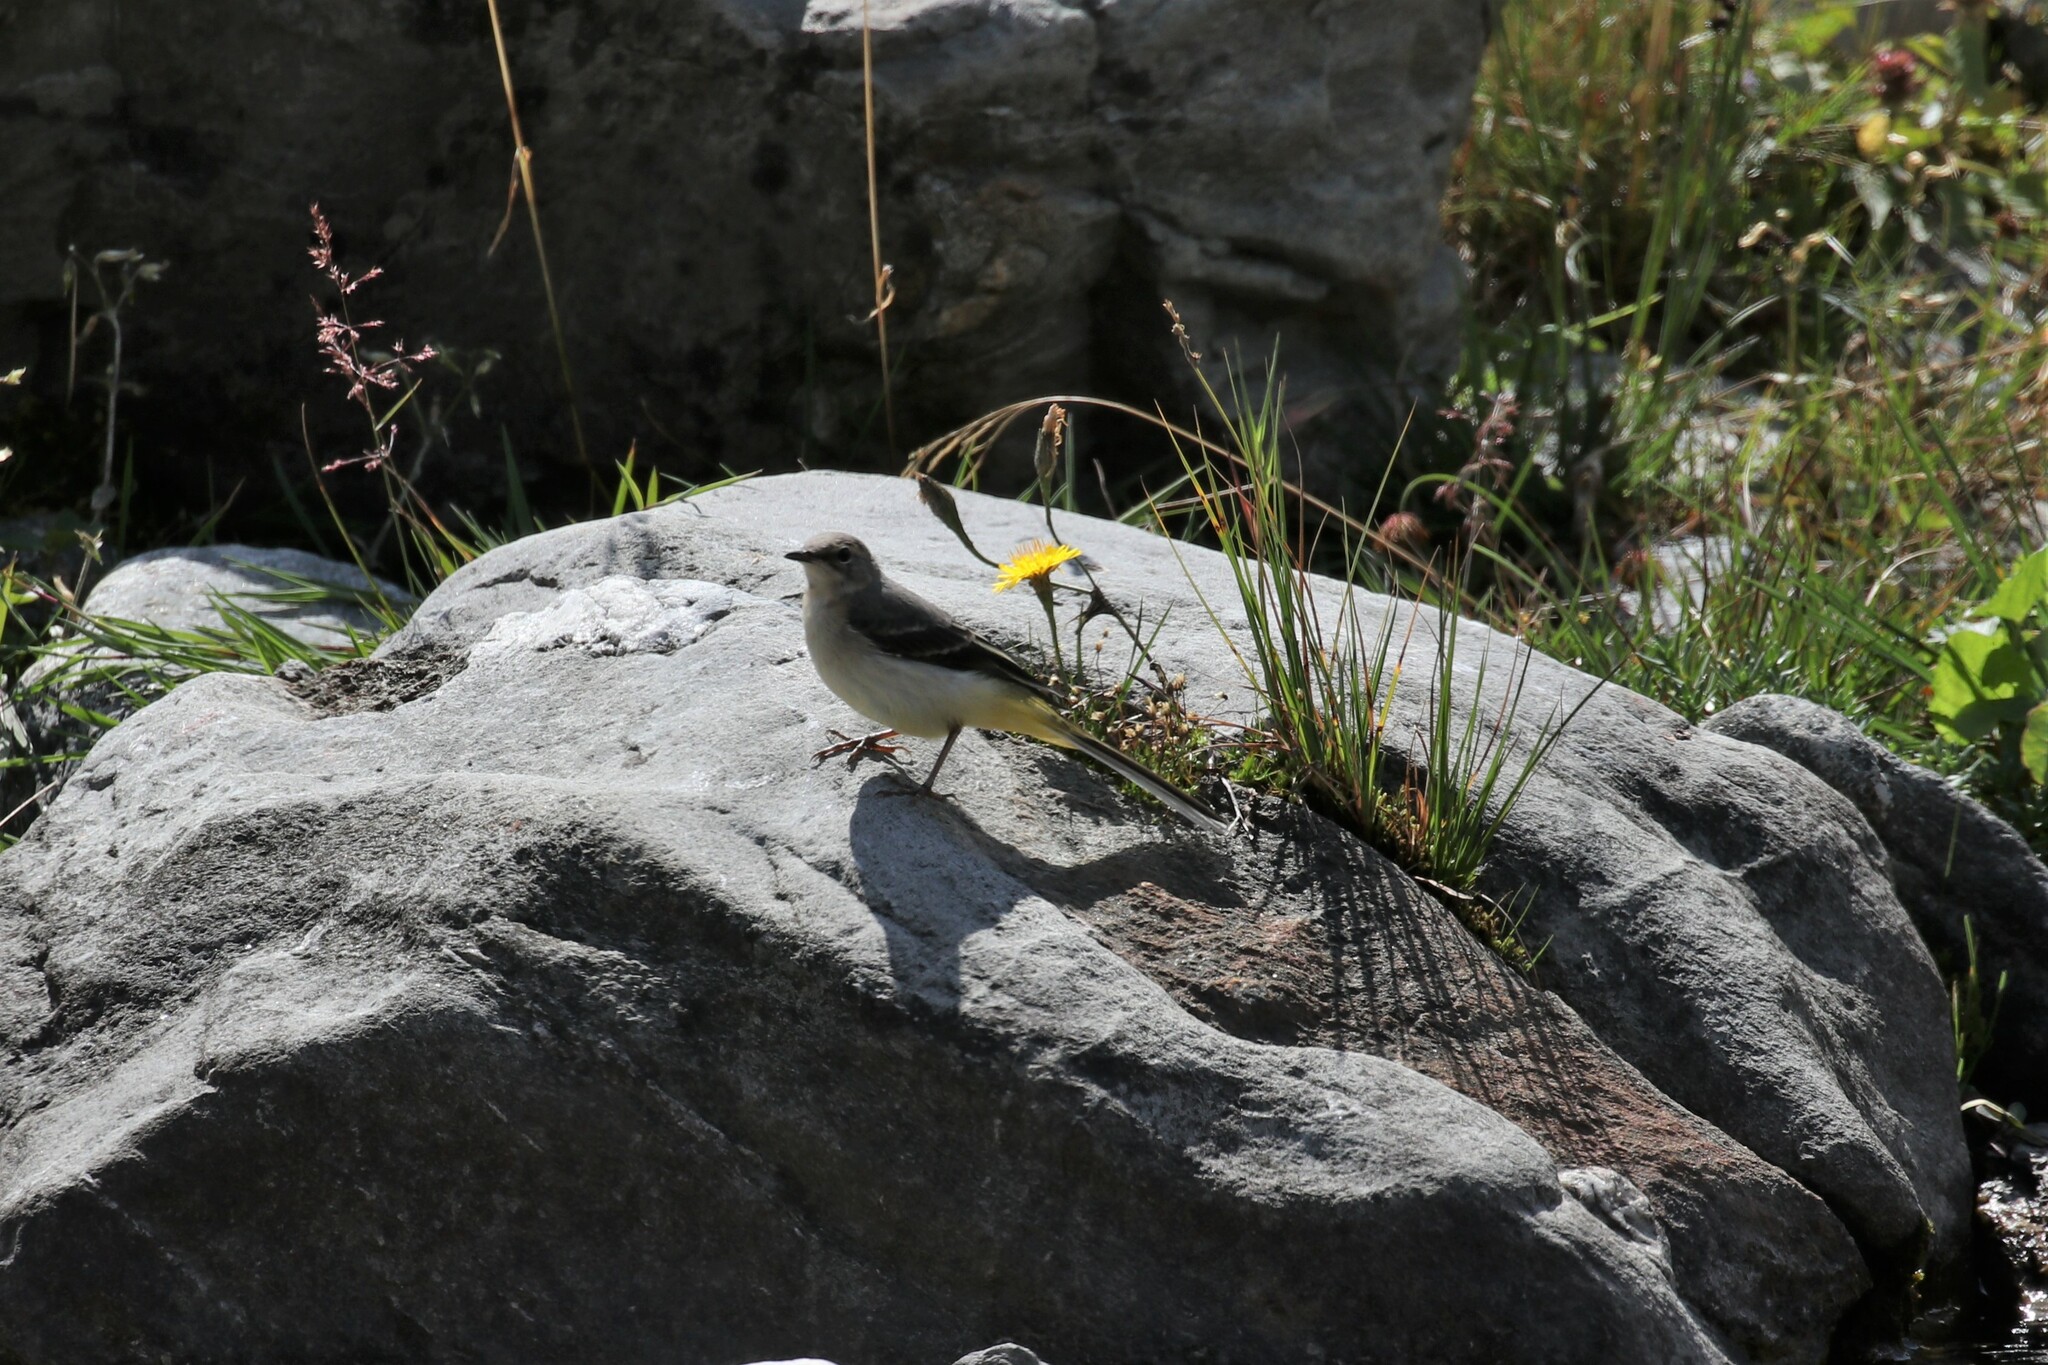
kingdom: Animalia
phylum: Chordata
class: Aves
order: Passeriformes
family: Motacillidae
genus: Motacilla
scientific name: Motacilla cinerea
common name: Grey wagtail
